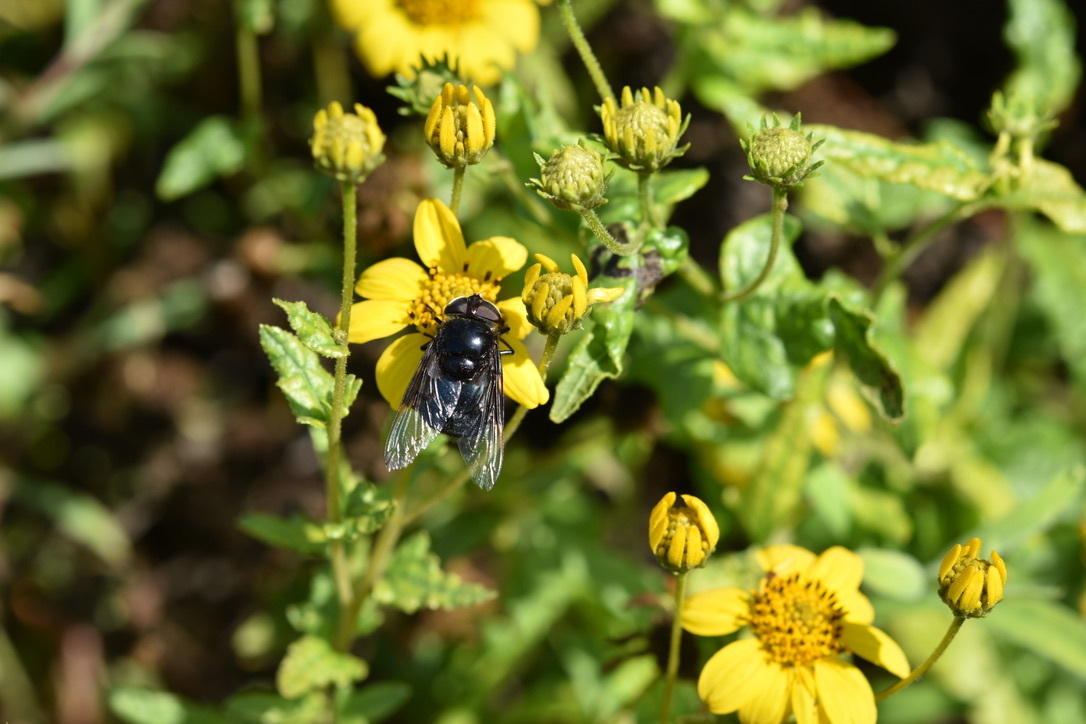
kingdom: Animalia
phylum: Arthropoda
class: Insecta
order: Diptera
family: Syrphidae
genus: Copestylum
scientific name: Copestylum
